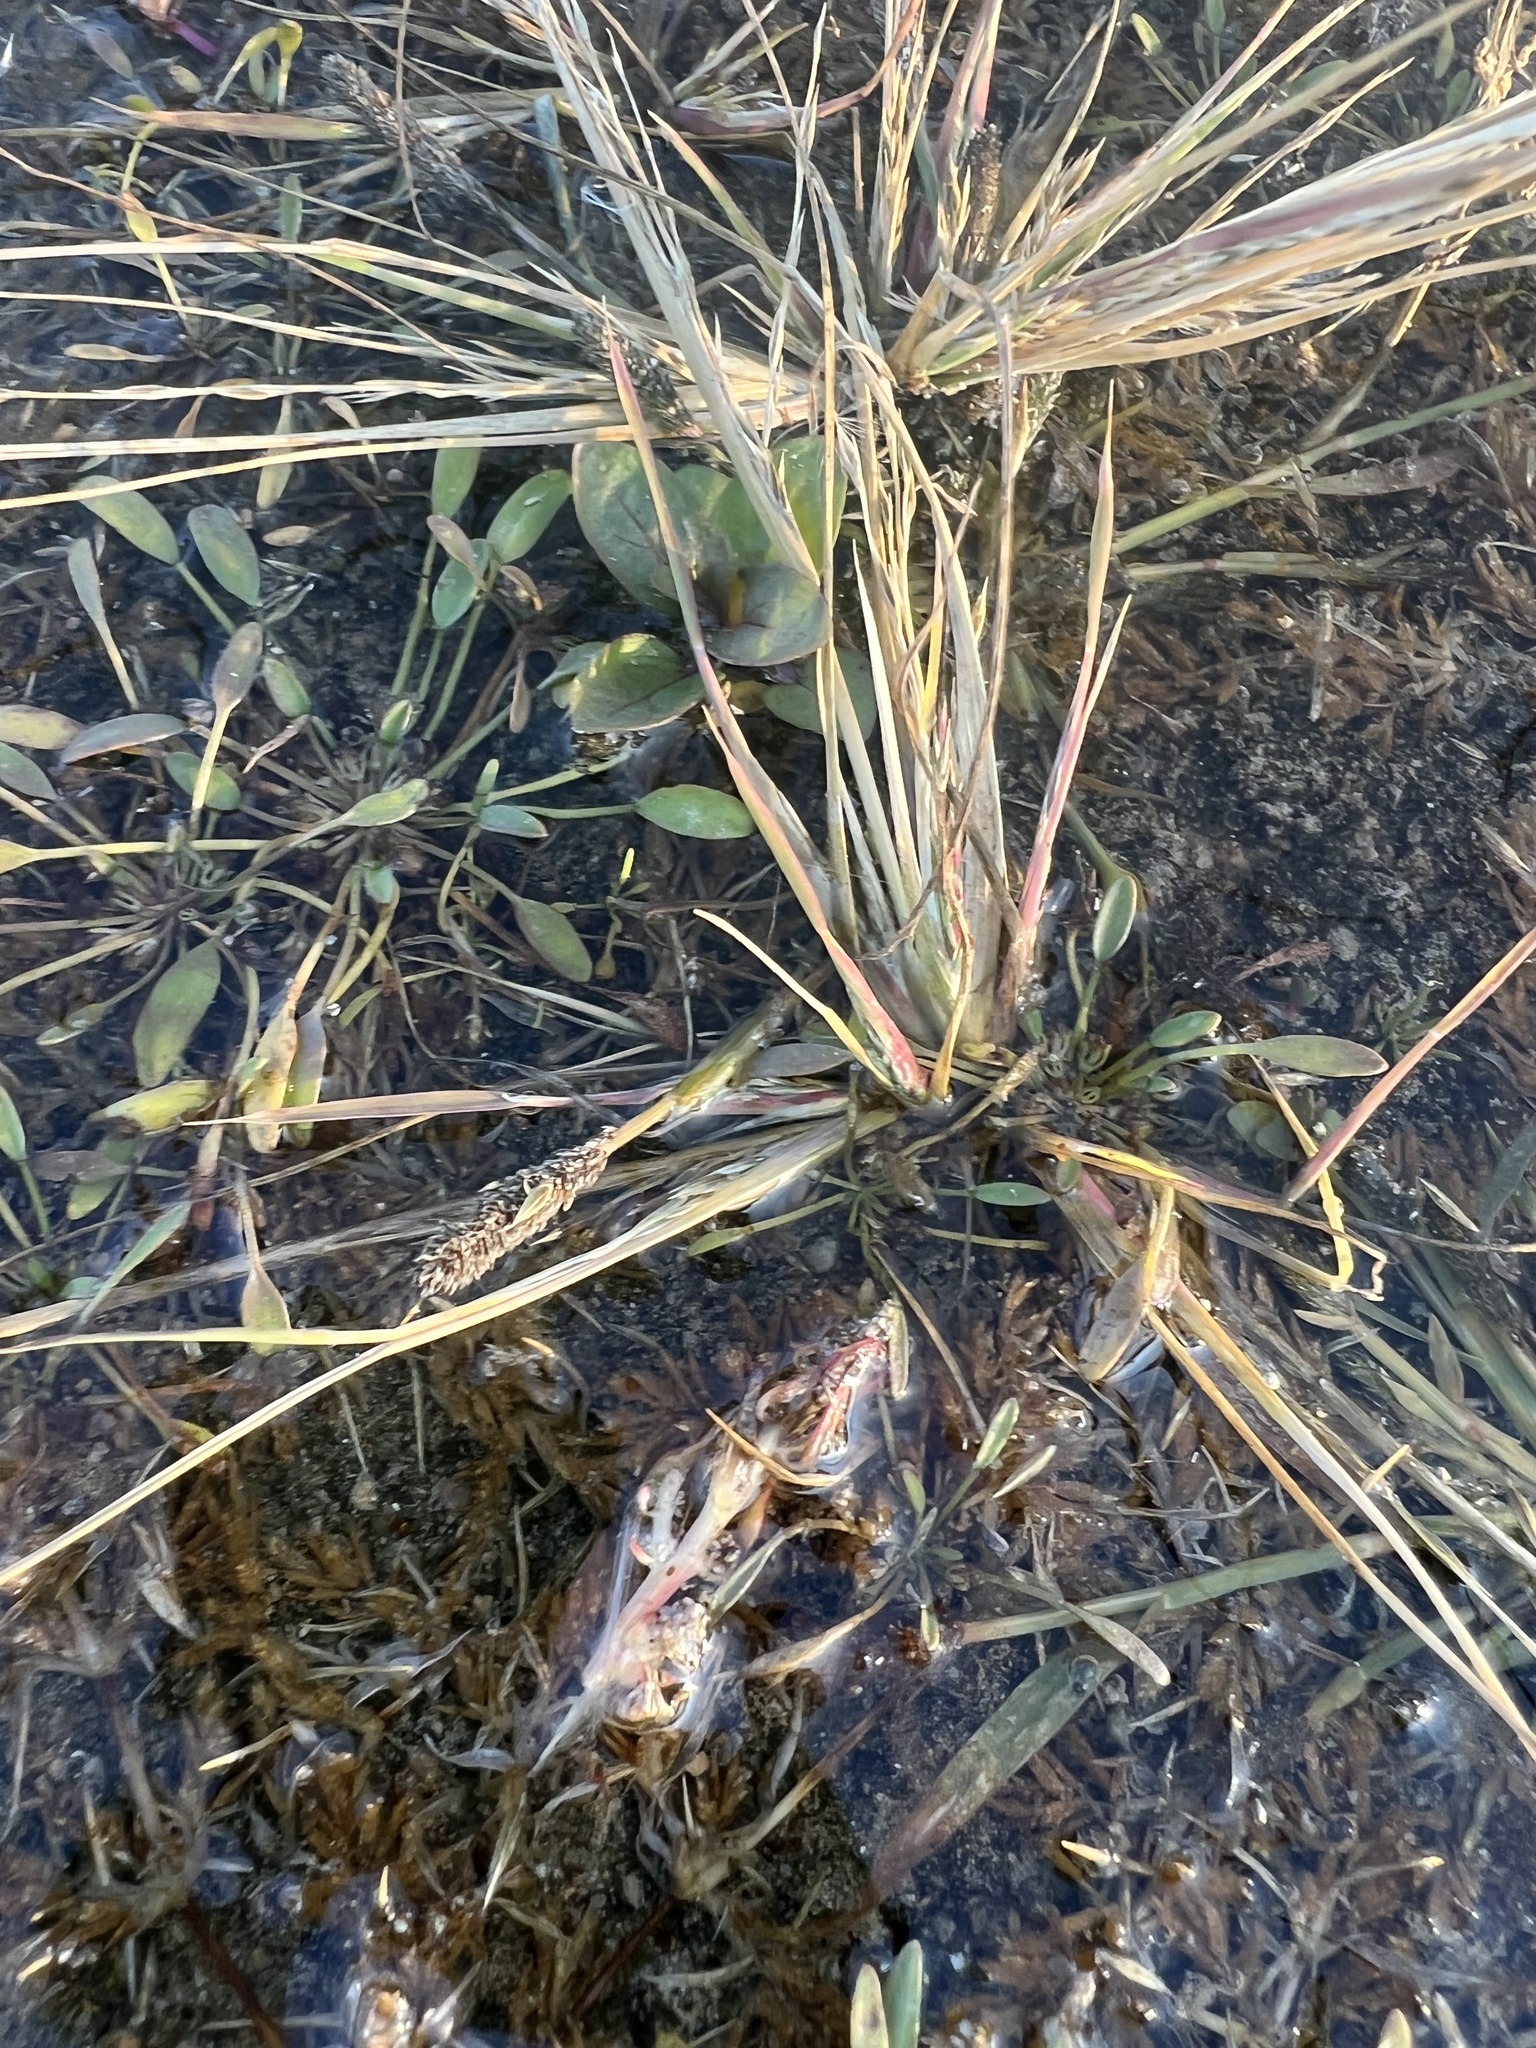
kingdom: Plantae
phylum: Tracheophyta
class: Liliopsida
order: Poales
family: Poaceae
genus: Sporobolus
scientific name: Sporobolus alopecuroides
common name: Foxtail pricklegrass
